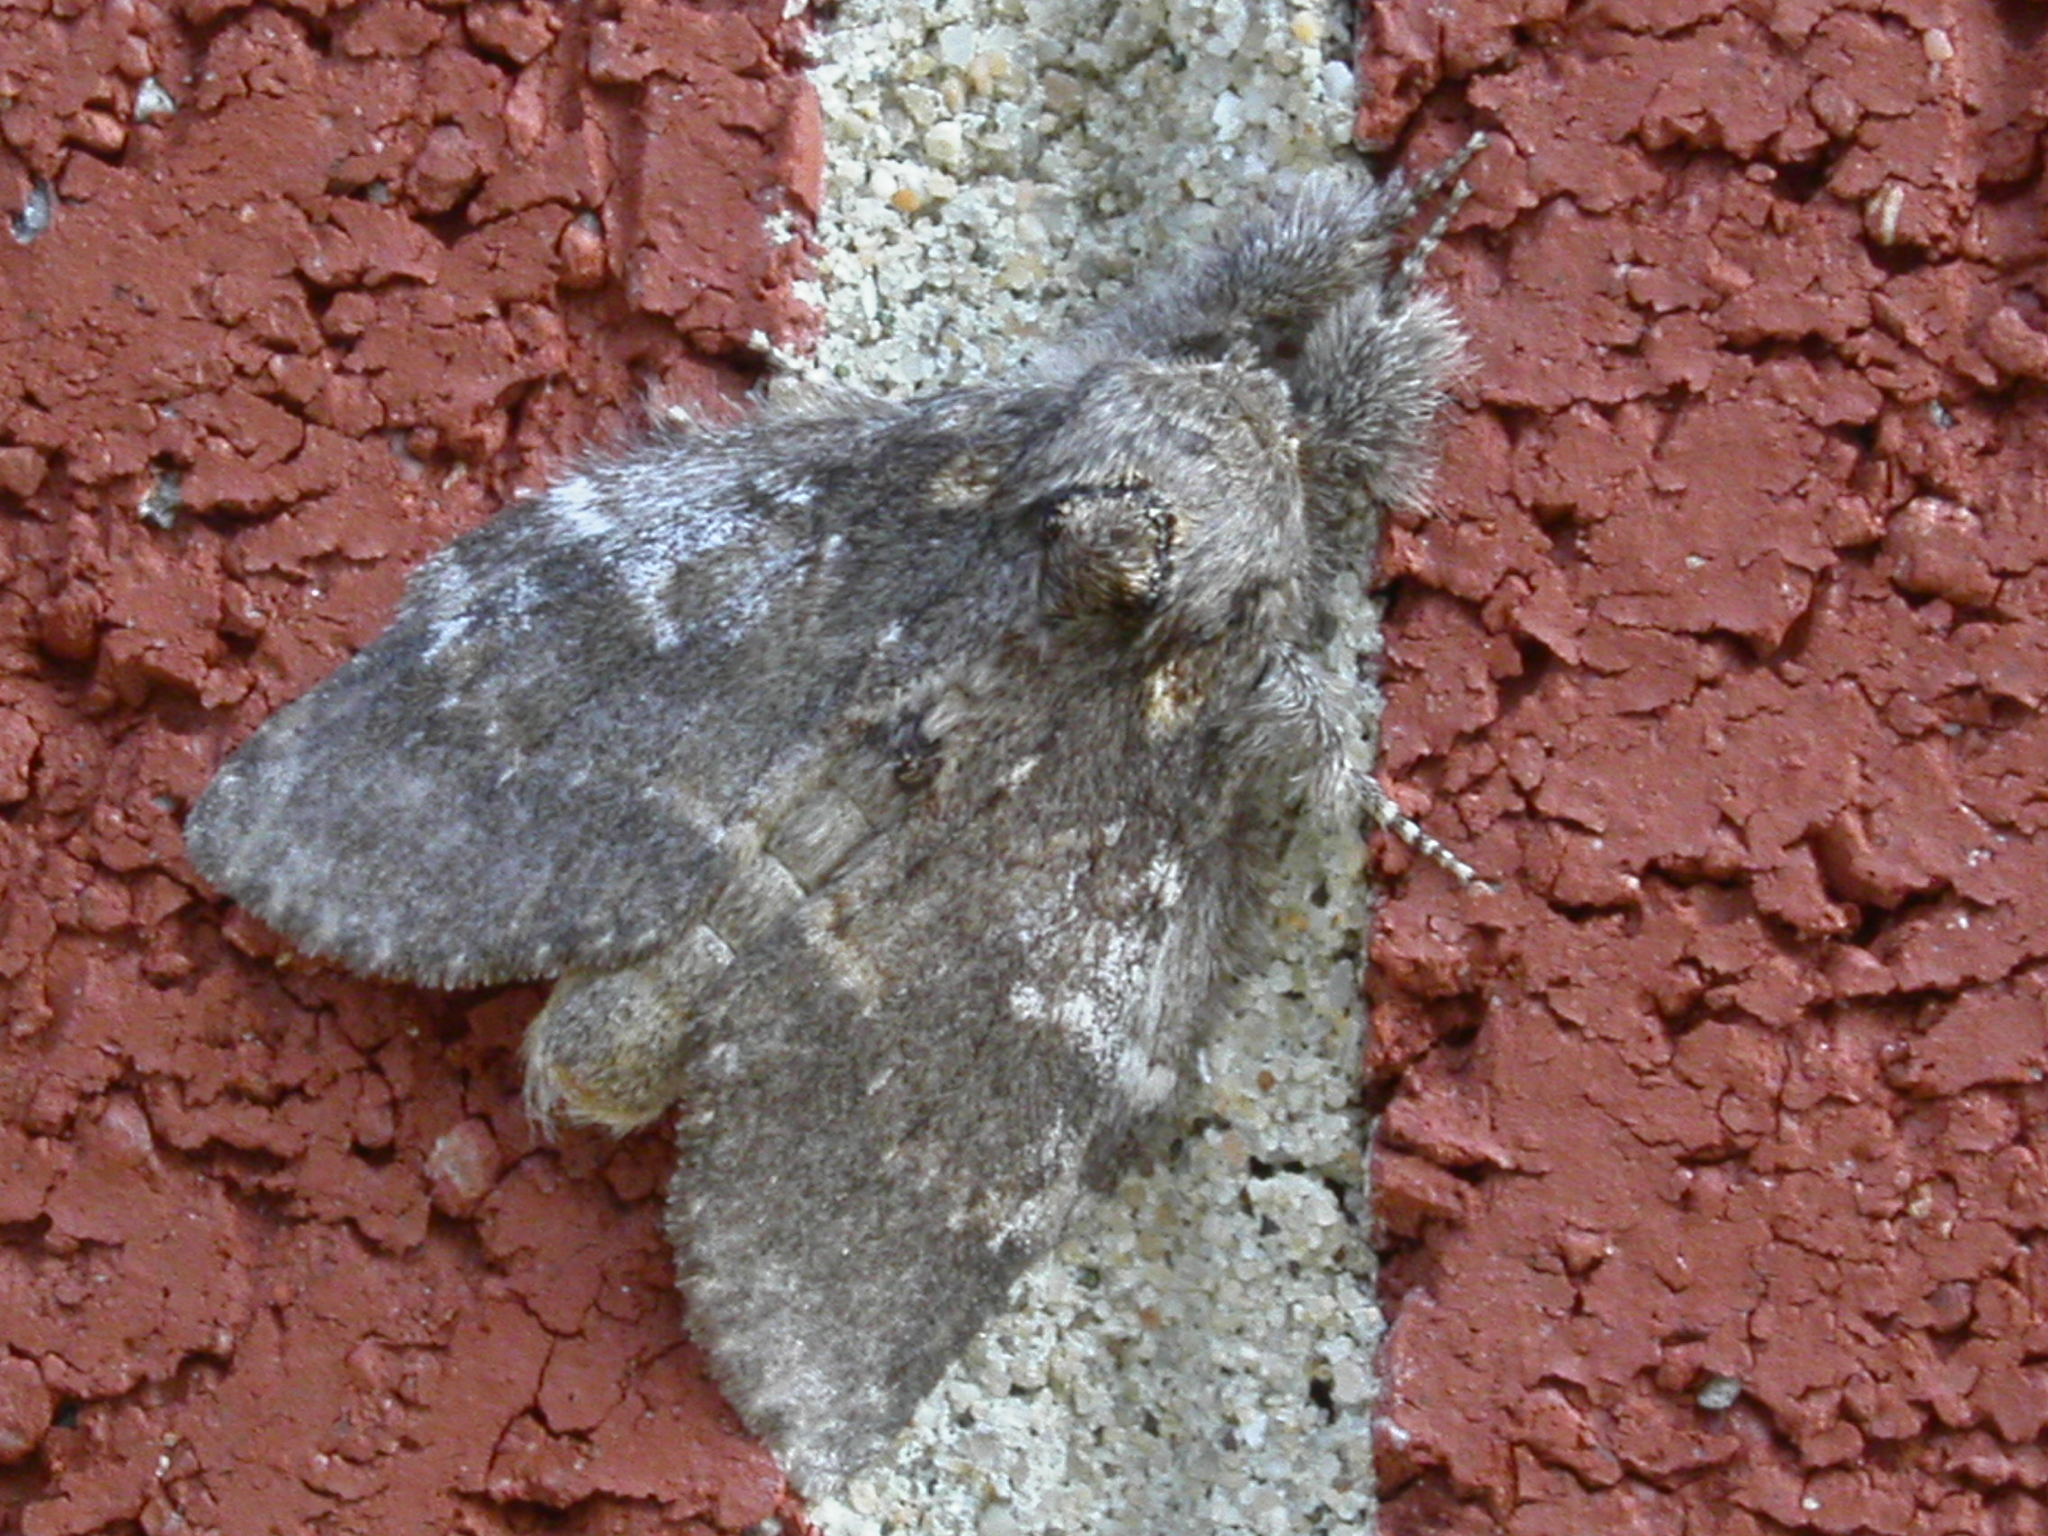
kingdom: Animalia
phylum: Arthropoda
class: Insecta
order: Lepidoptera
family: Notodontidae
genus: Peridea
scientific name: Peridea angulosa
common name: Angulose prominent
